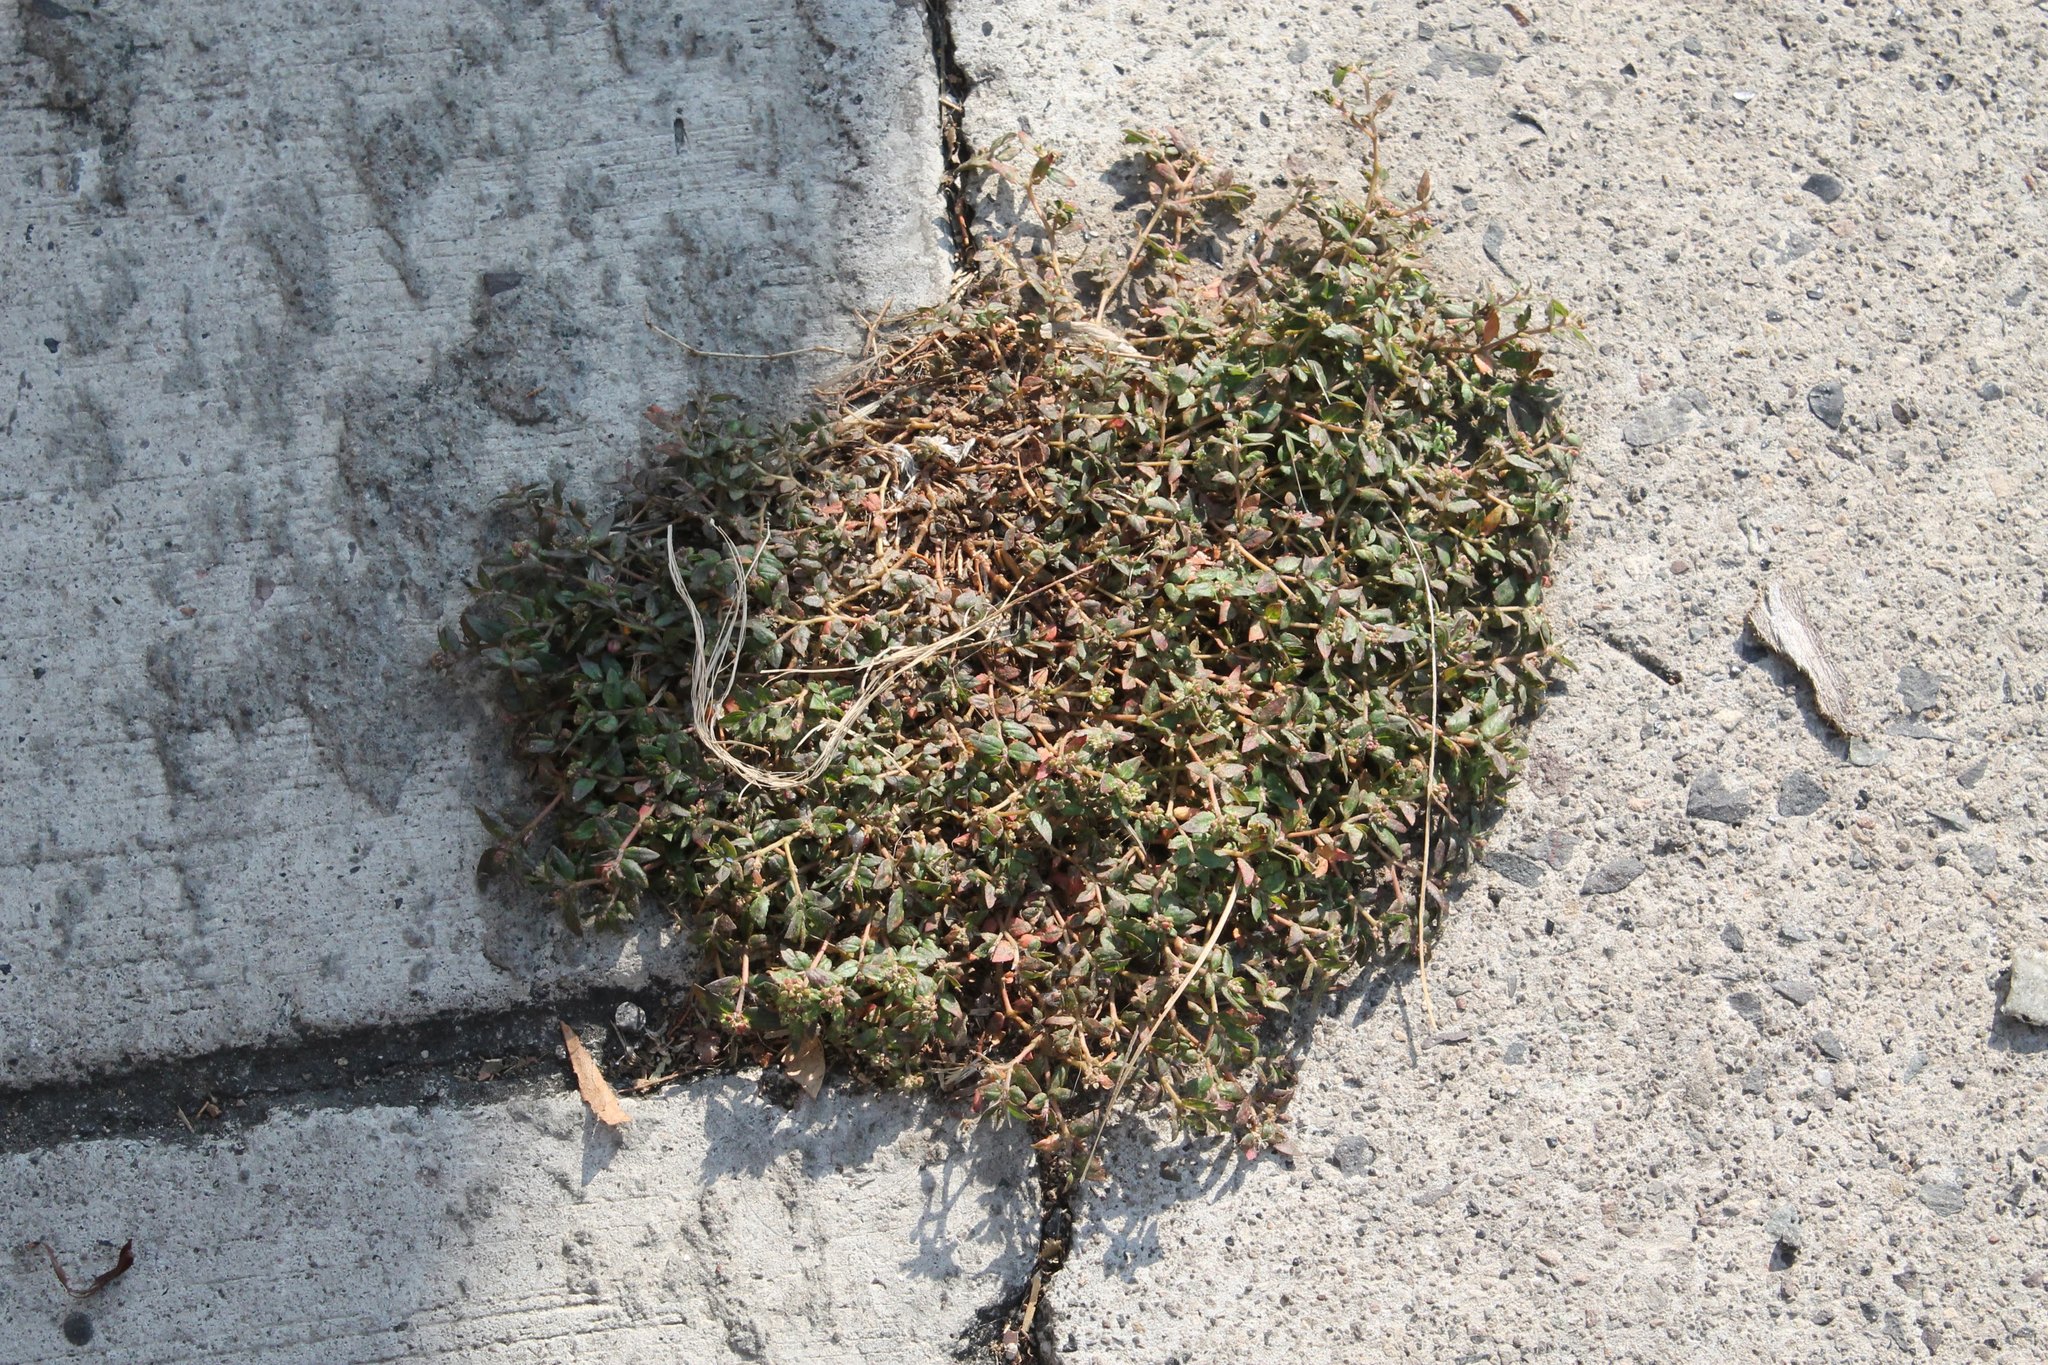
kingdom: Plantae
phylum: Tracheophyta
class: Magnoliopsida
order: Malpighiales
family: Euphorbiaceae
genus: Euphorbia
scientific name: Euphorbia ophthalmica
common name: Florida hammock sandmat
